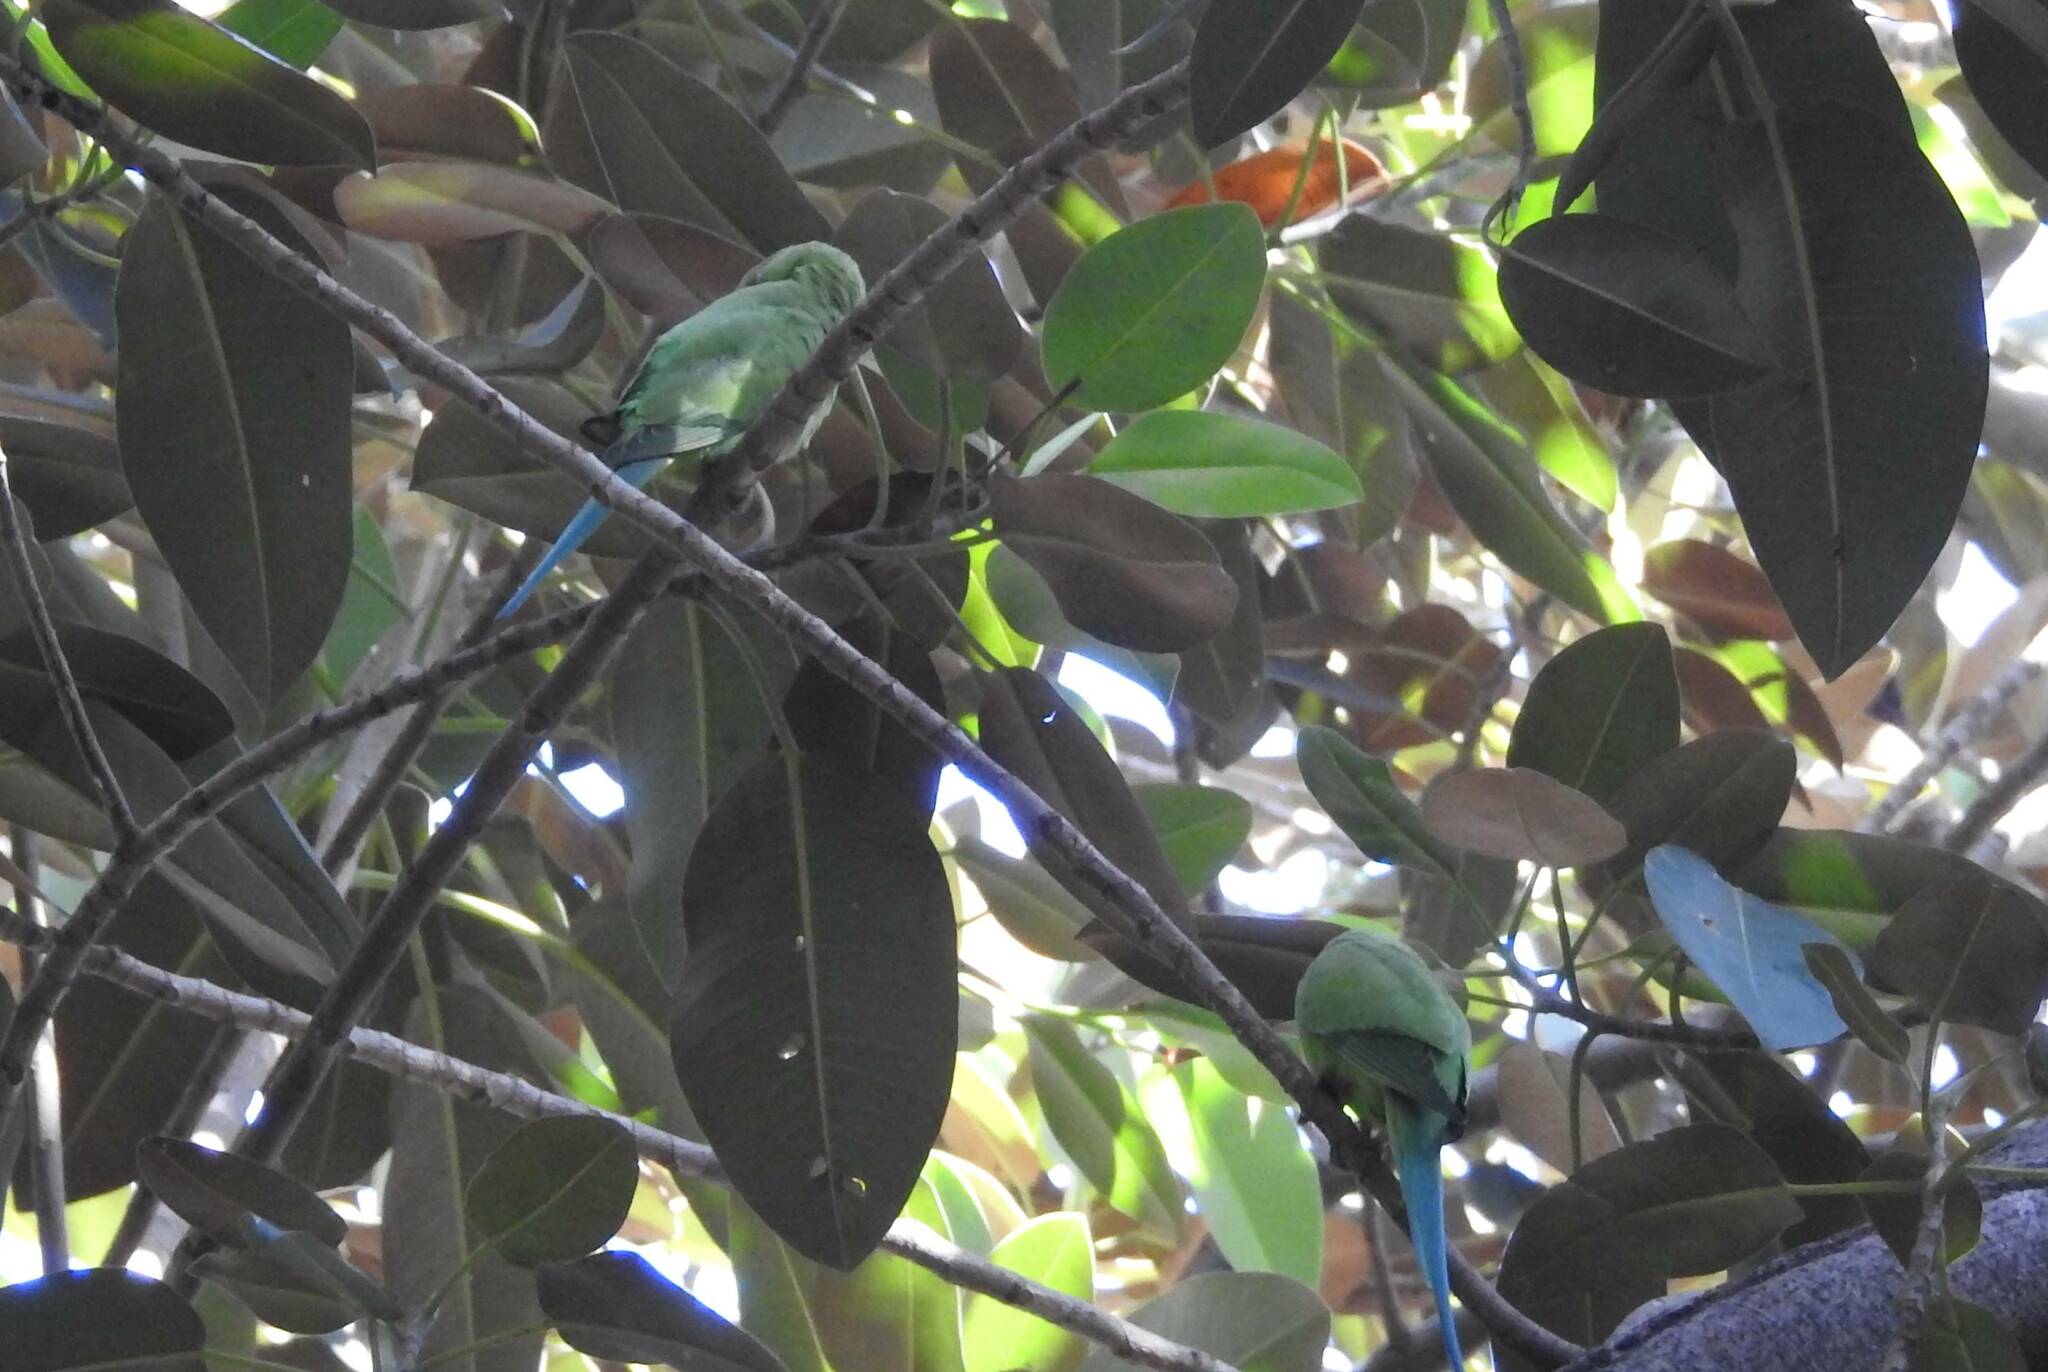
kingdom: Animalia
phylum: Chordata
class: Aves
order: Psittaciformes
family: Psittacidae
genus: Psittacula
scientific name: Psittacula krameri
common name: Rose-ringed parakeet
